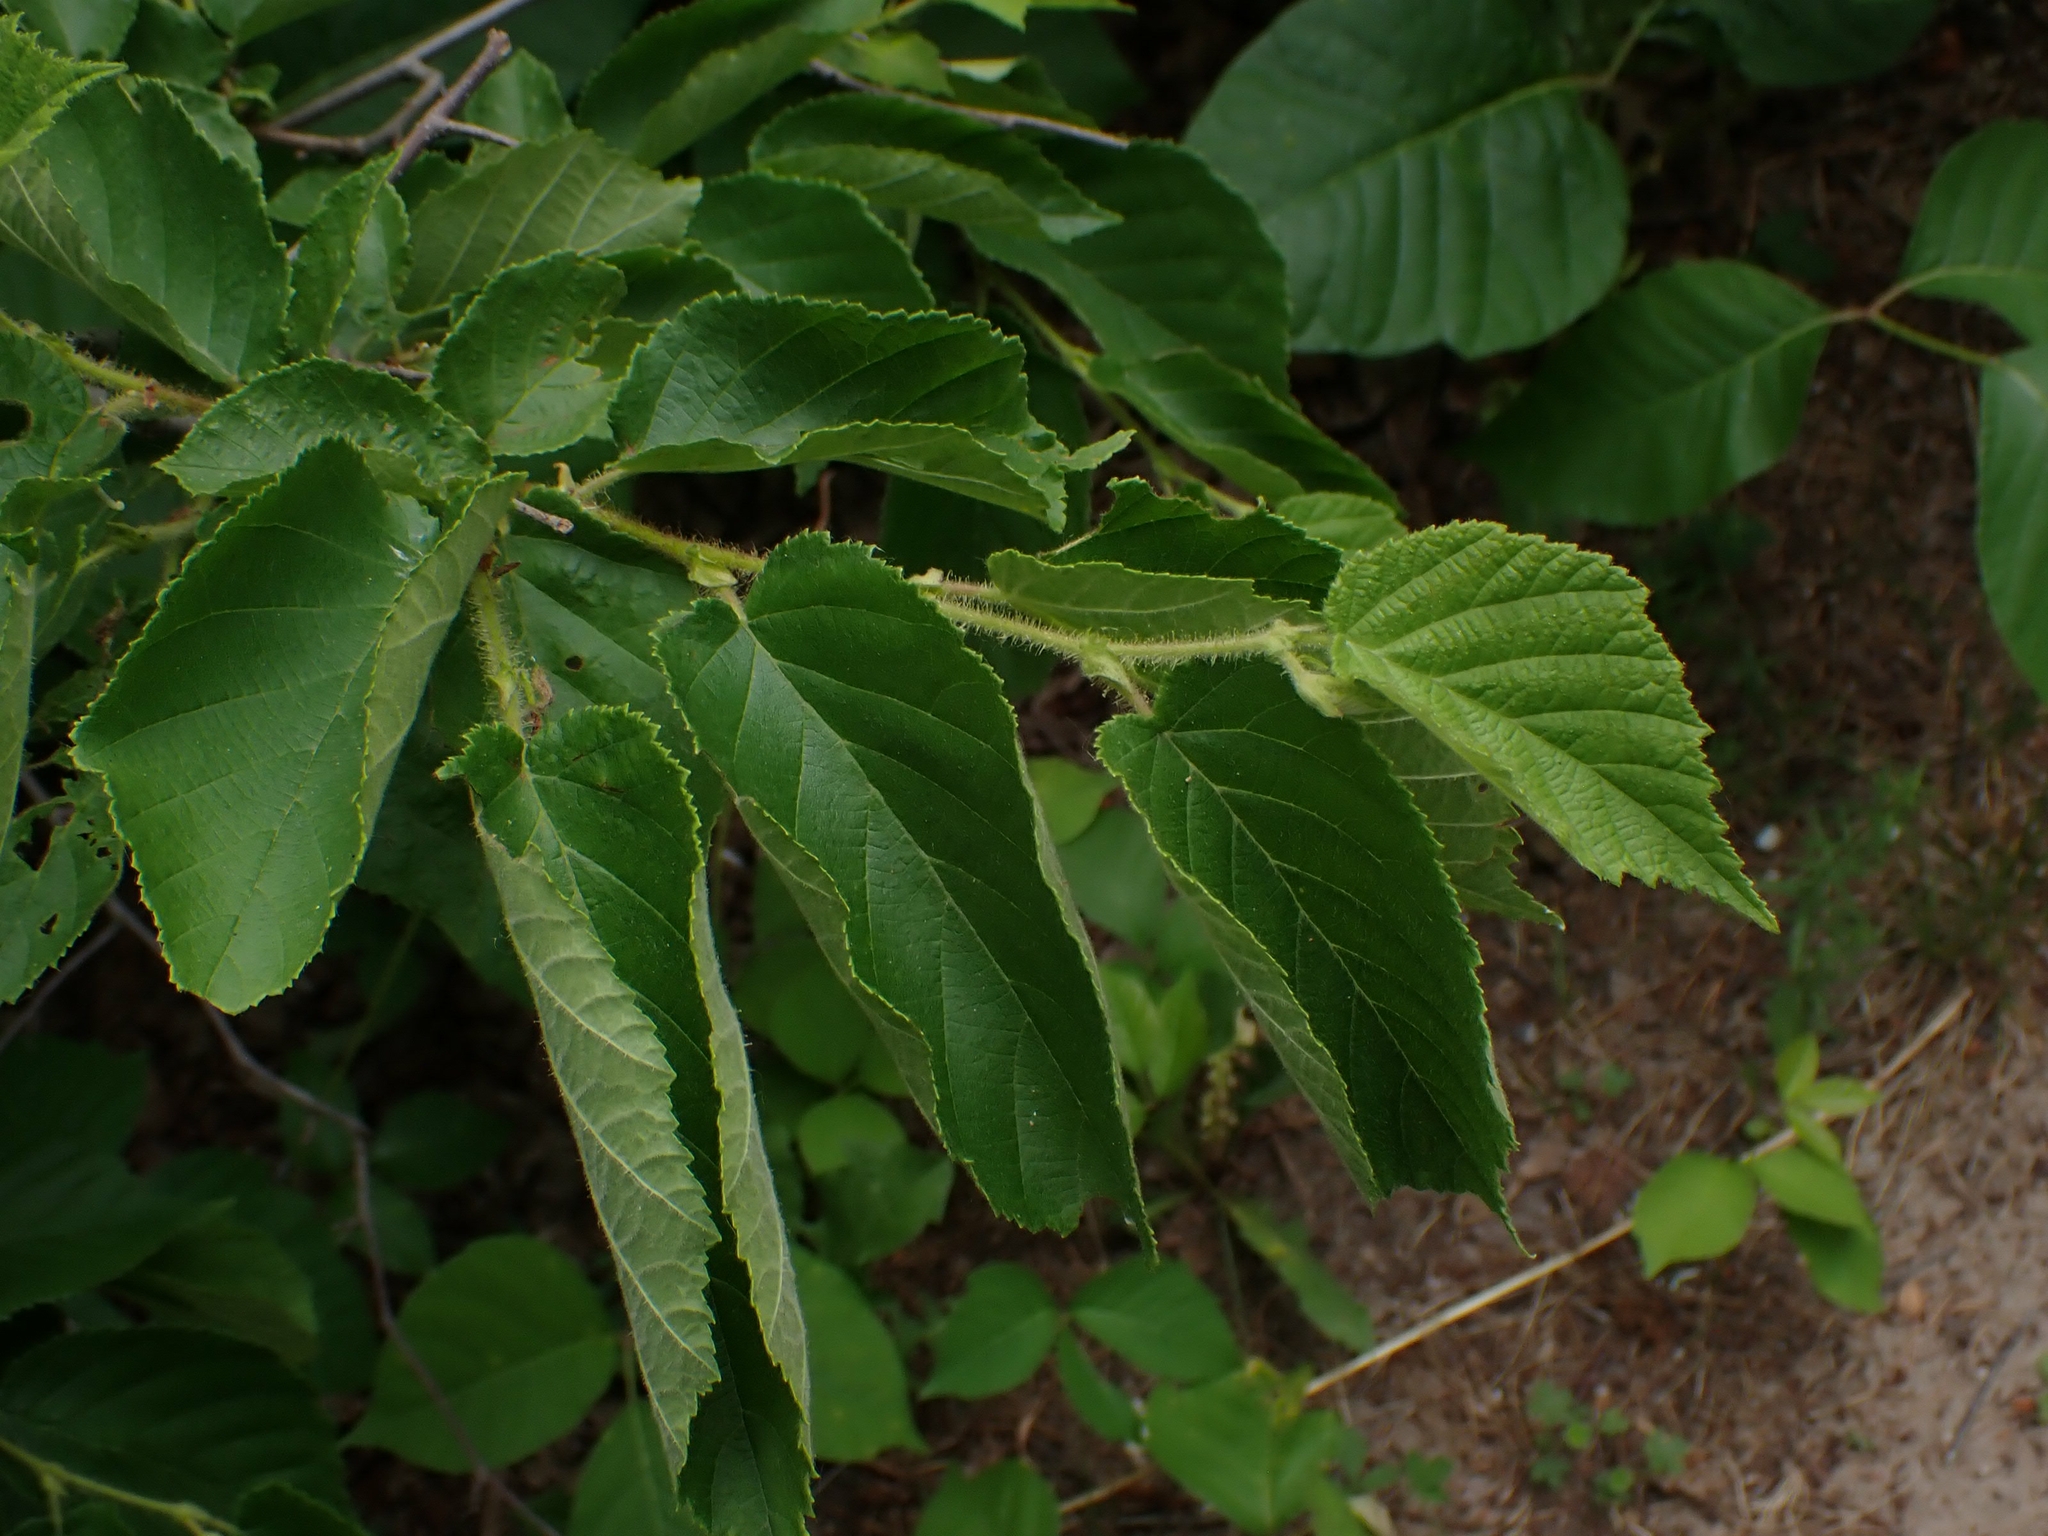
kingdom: Plantae
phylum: Tracheophyta
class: Magnoliopsida
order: Fagales
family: Betulaceae
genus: Corylus
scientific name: Corylus americana
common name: American hazel
